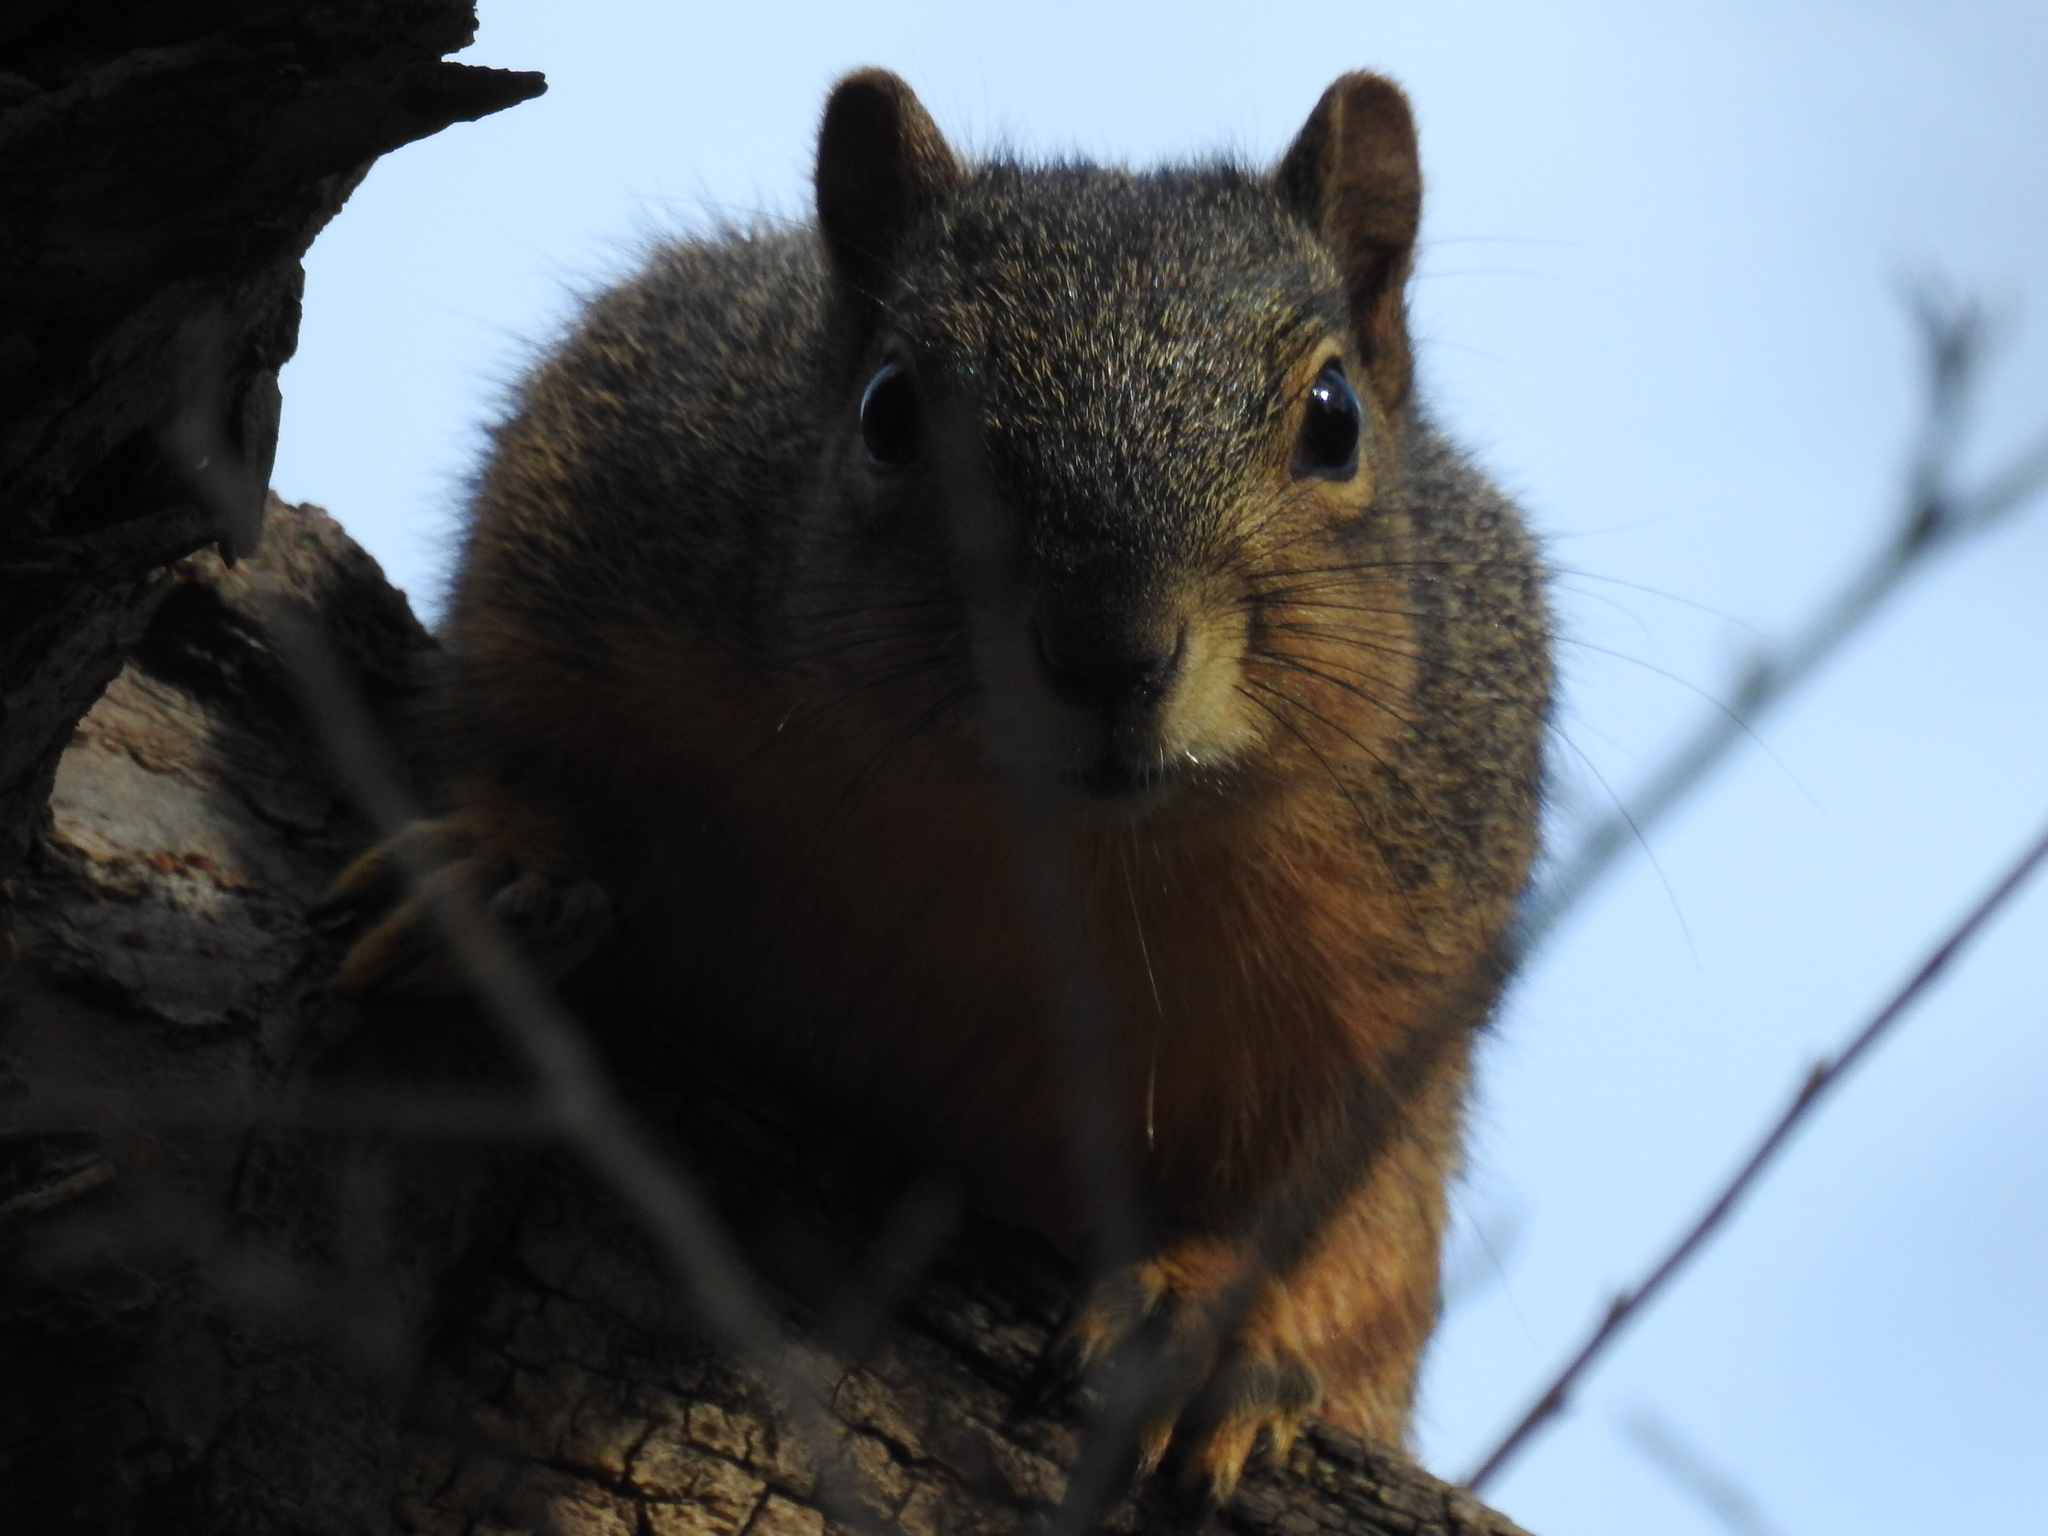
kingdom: Animalia
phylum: Chordata
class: Mammalia
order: Rodentia
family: Sciuridae
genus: Sciurus
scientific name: Sciurus niger
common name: Fox squirrel
